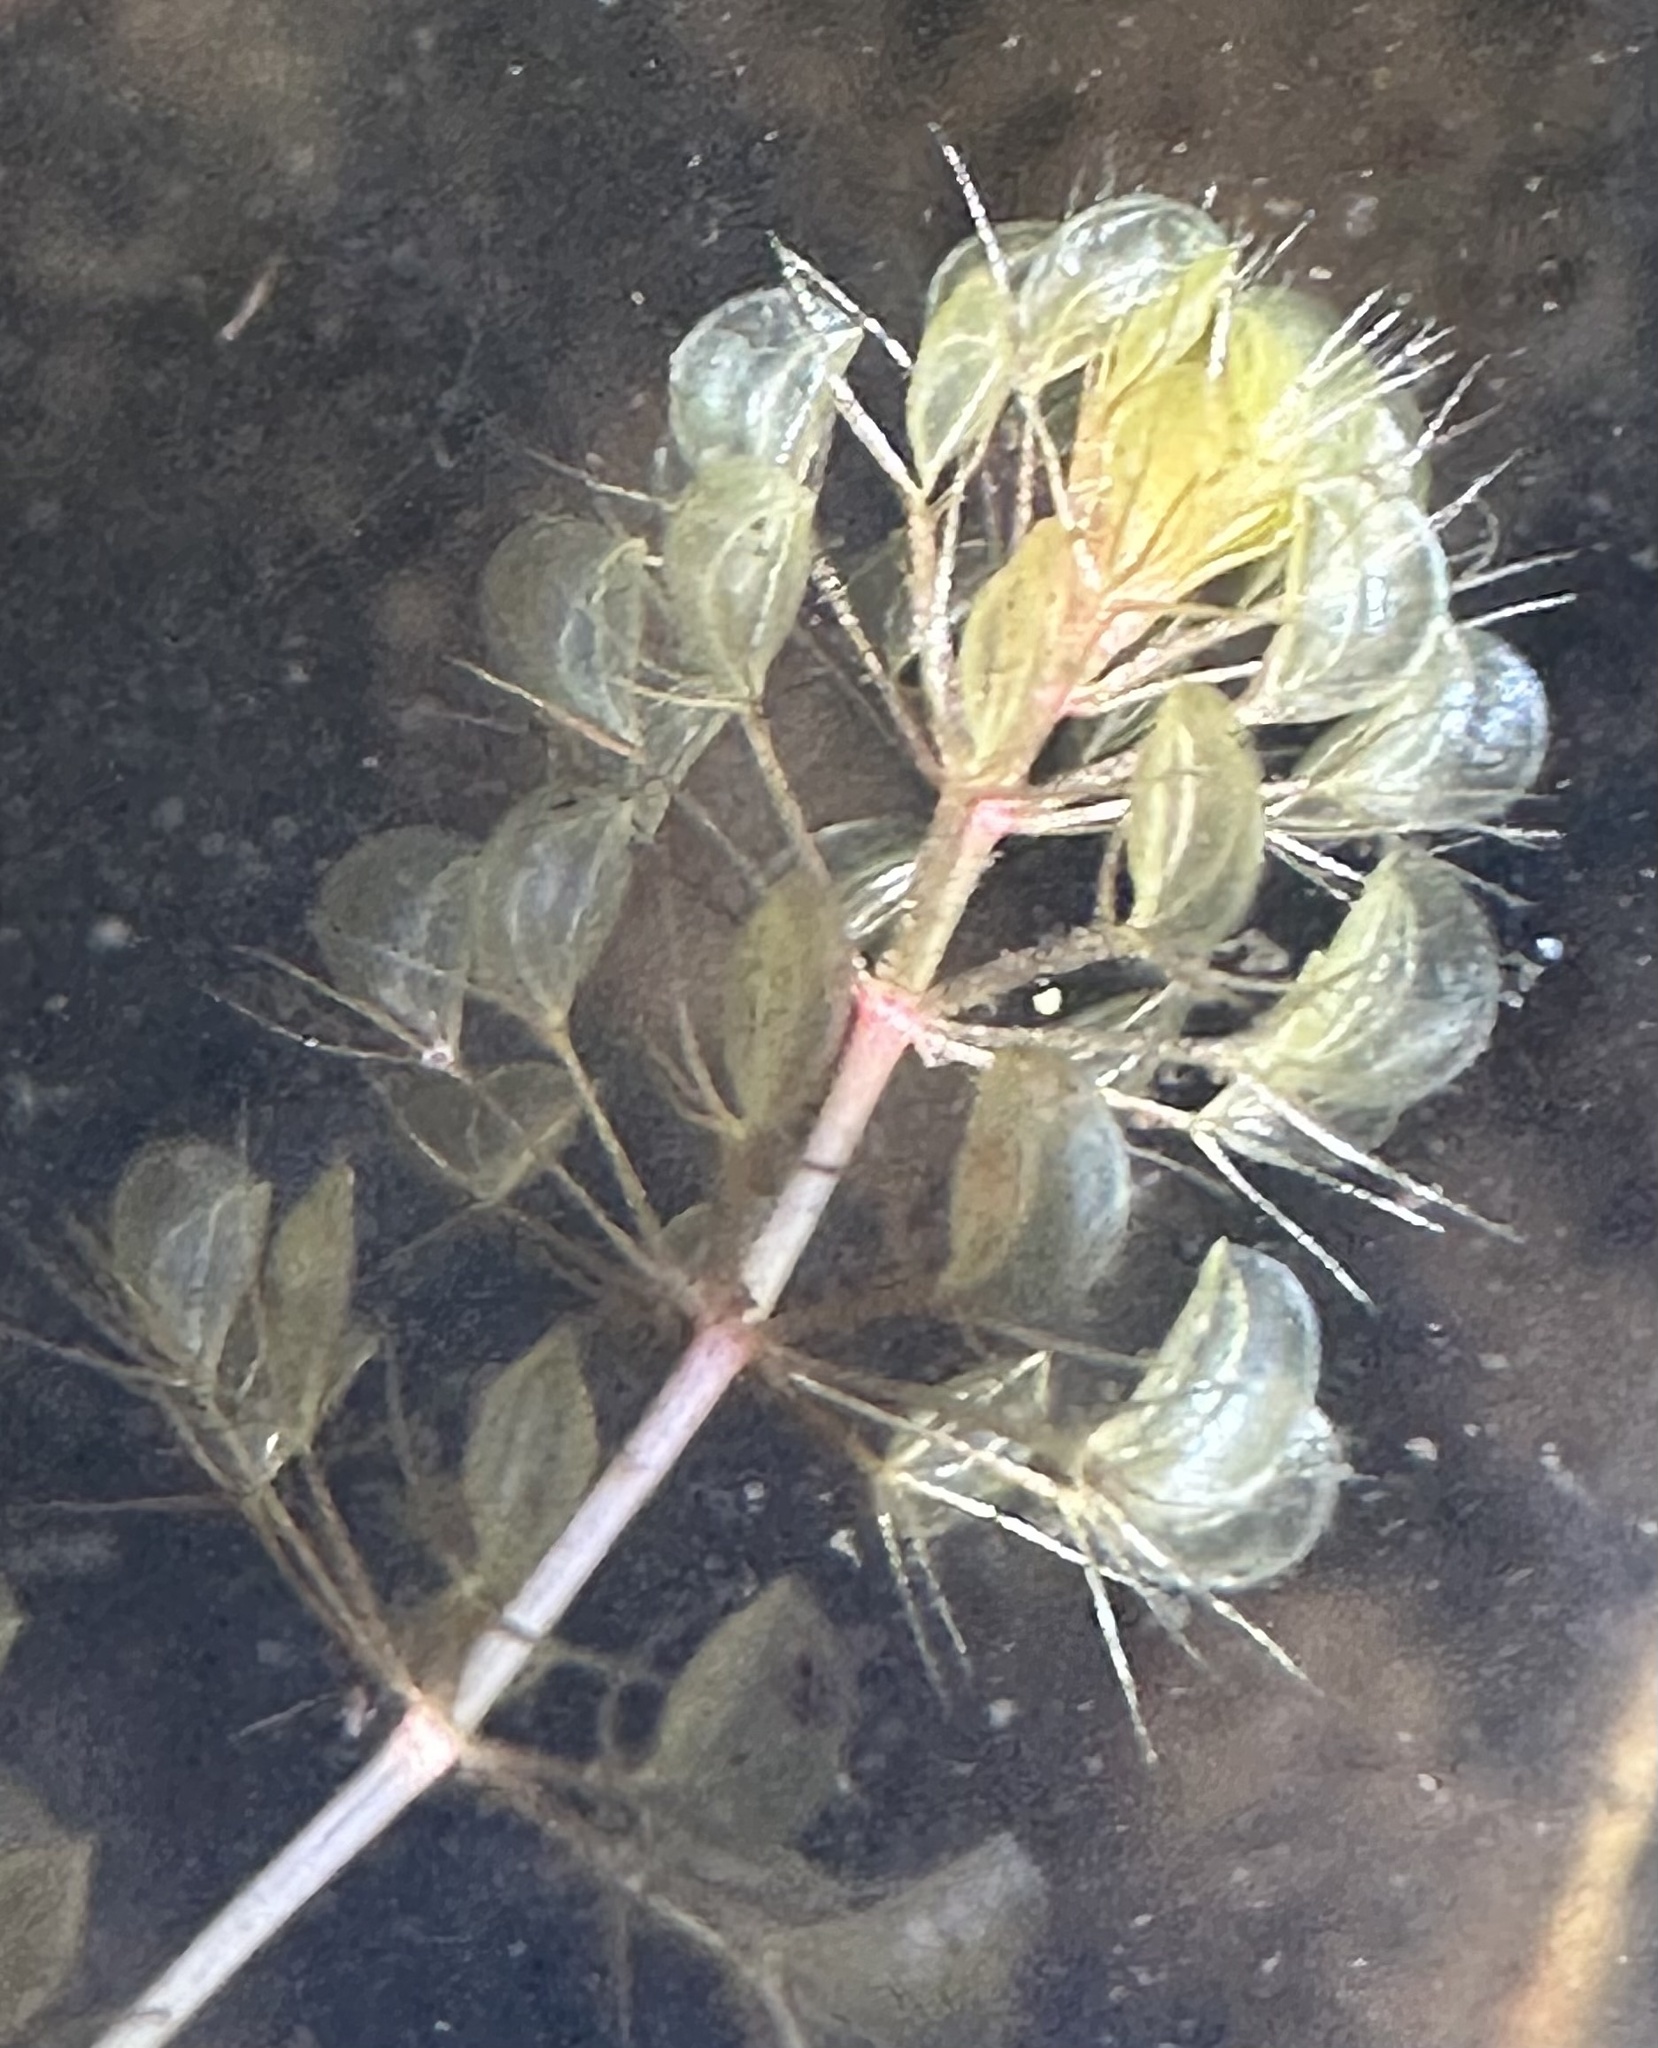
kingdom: Plantae
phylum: Tracheophyta
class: Magnoliopsida
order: Caryophyllales
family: Droseraceae
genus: Aldrovanda
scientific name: Aldrovanda vesiculosa
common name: Waterwheel plant
